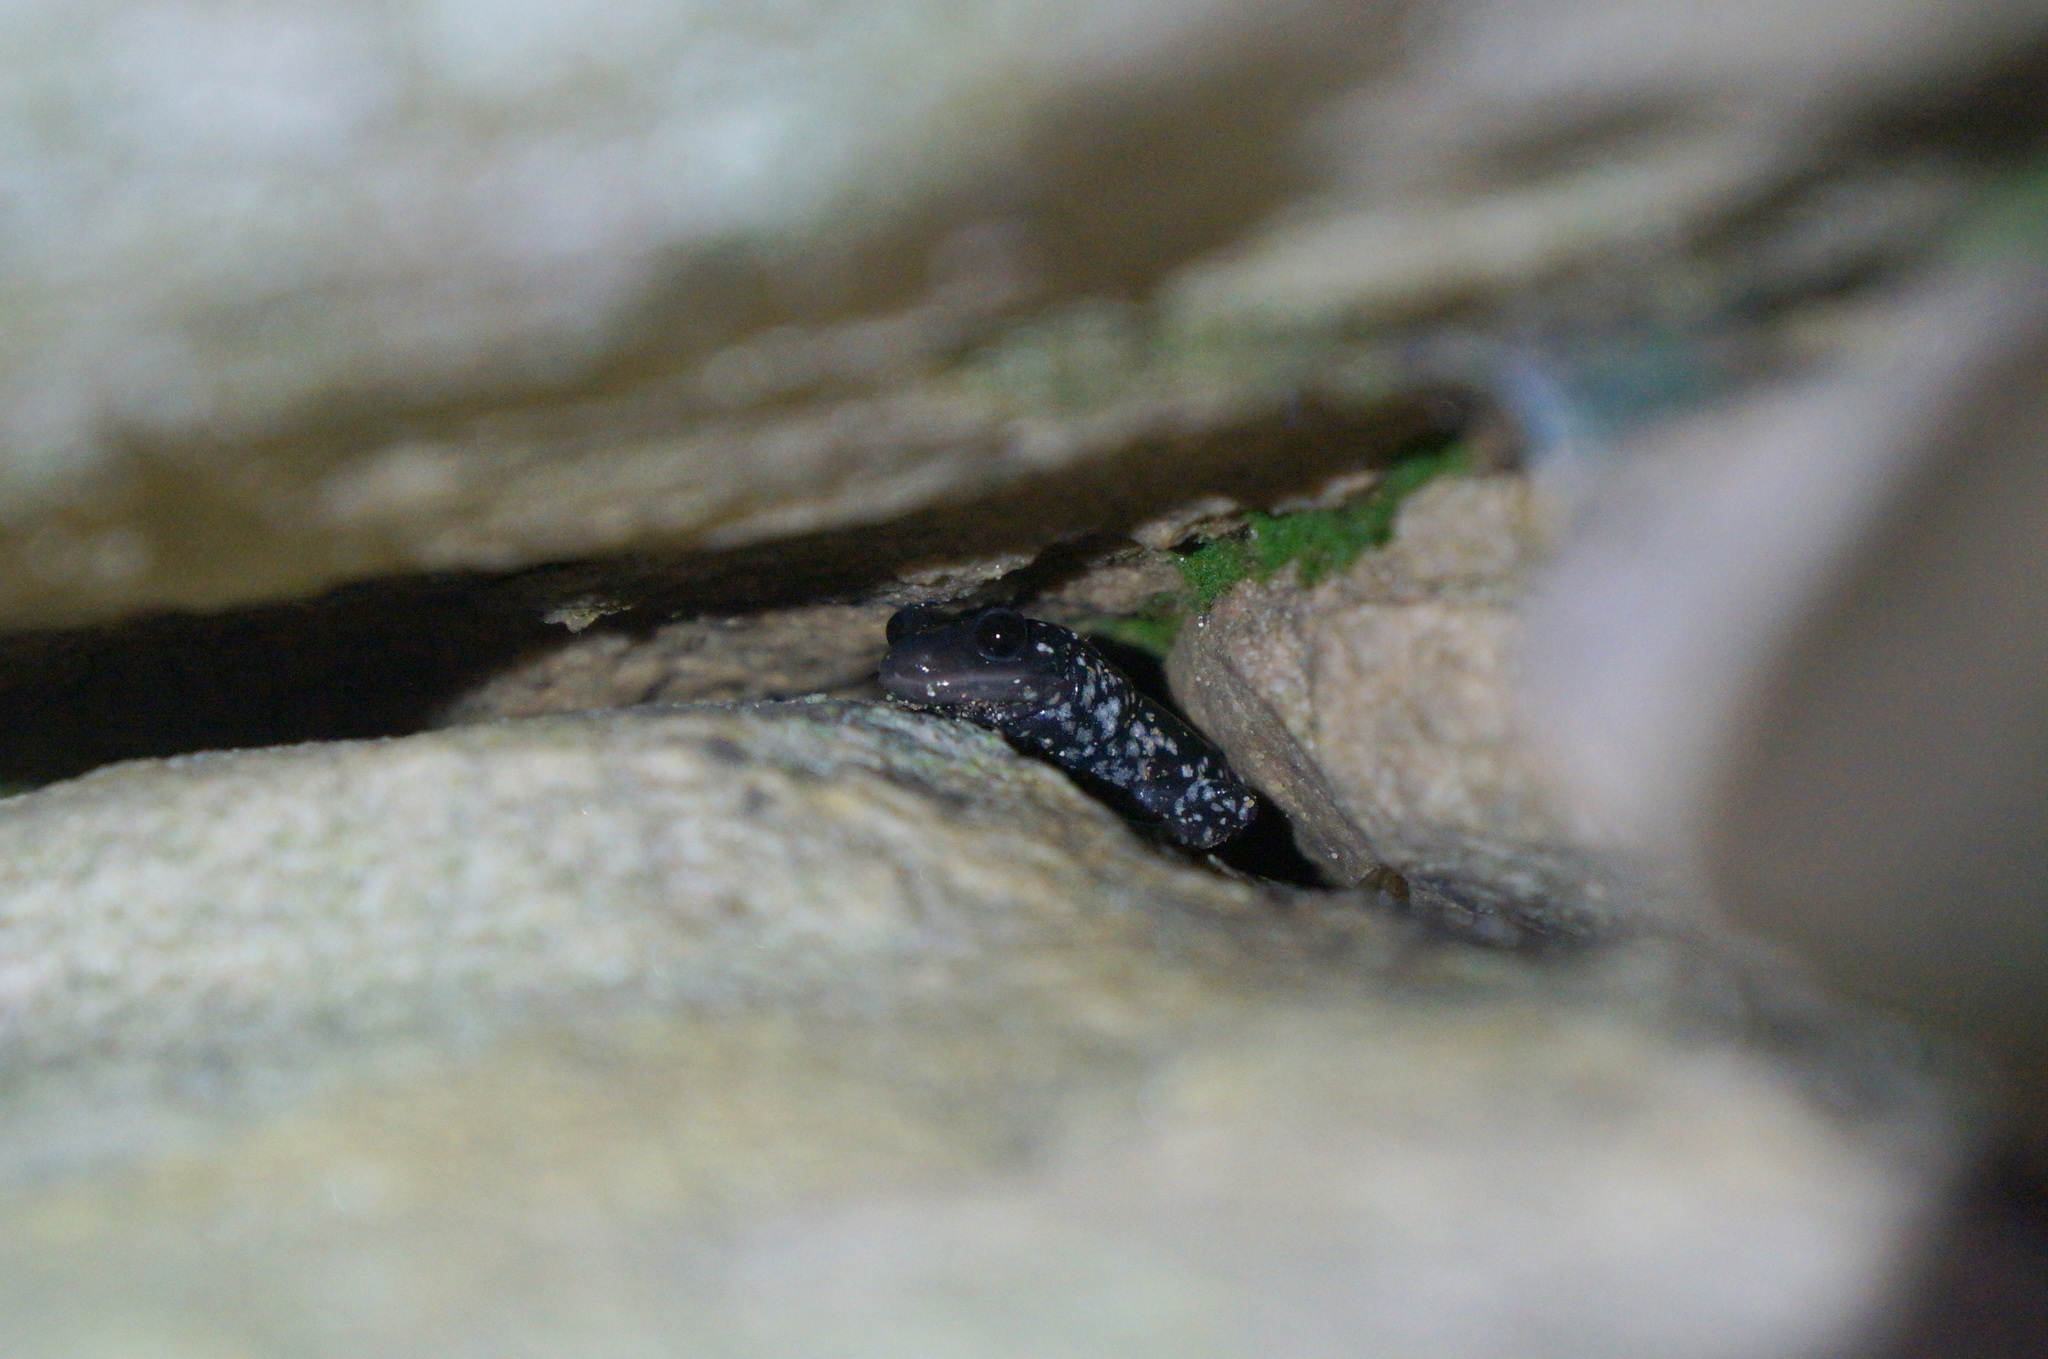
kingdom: Animalia
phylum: Chordata
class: Amphibia
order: Caudata
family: Plethodontidae
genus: Plethodon
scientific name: Plethodon glutinosus
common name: Northern slimy salamander
